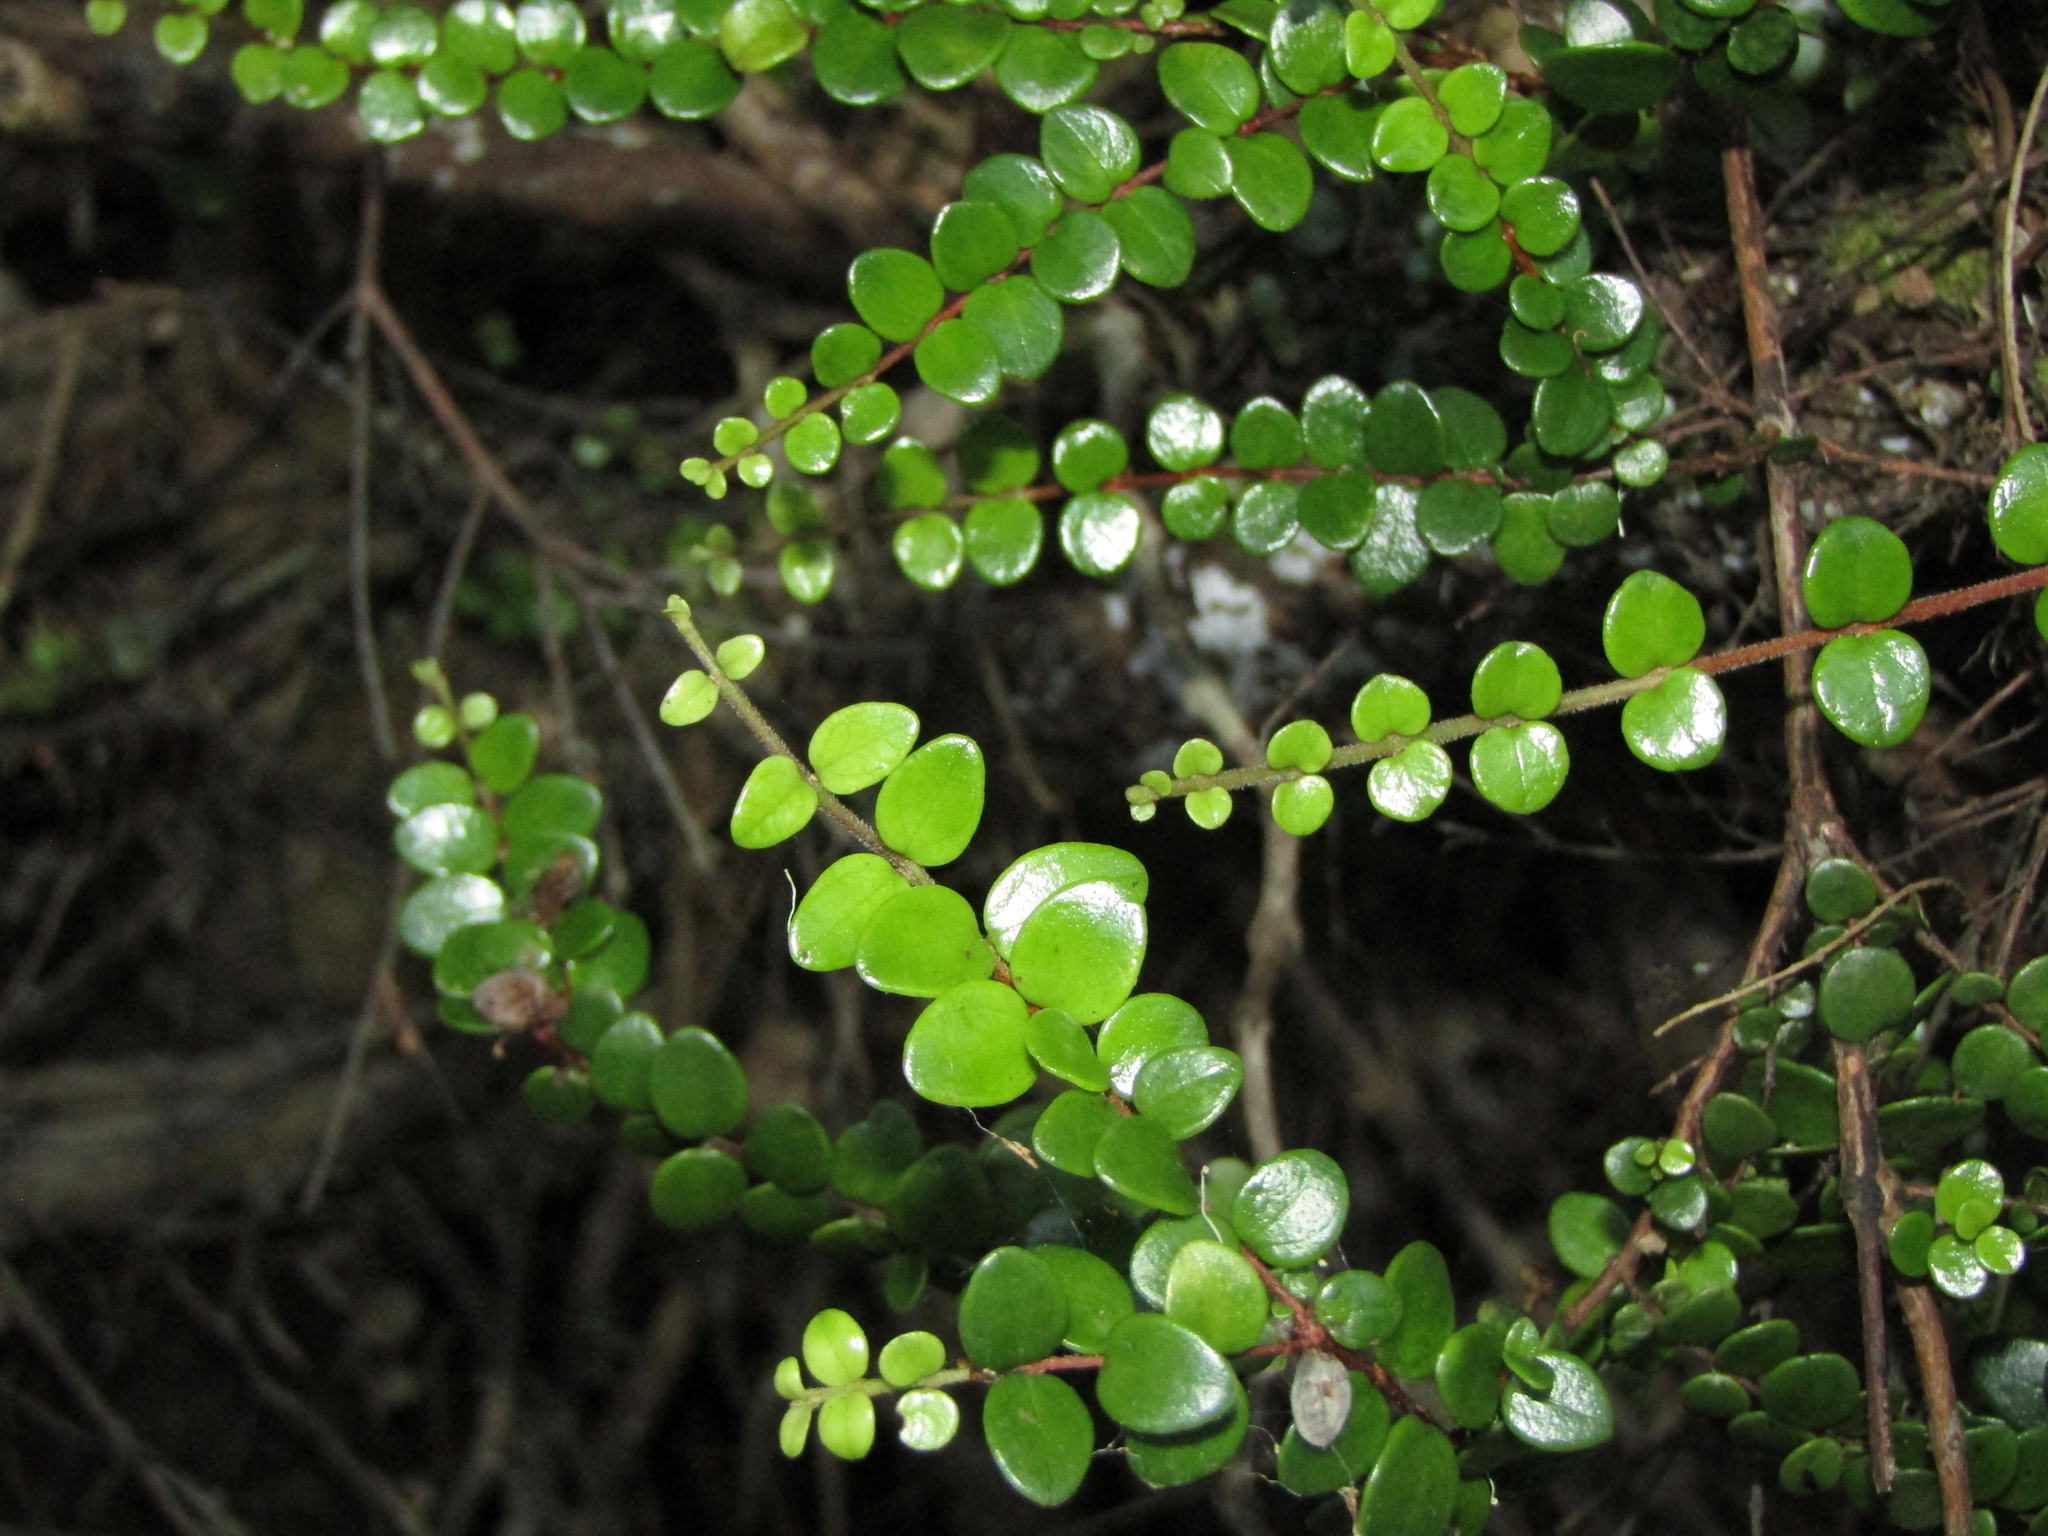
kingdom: Plantae
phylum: Tracheophyta
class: Magnoliopsida
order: Myrtales
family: Myrtaceae
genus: Metrosideros
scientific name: Metrosideros perforata
